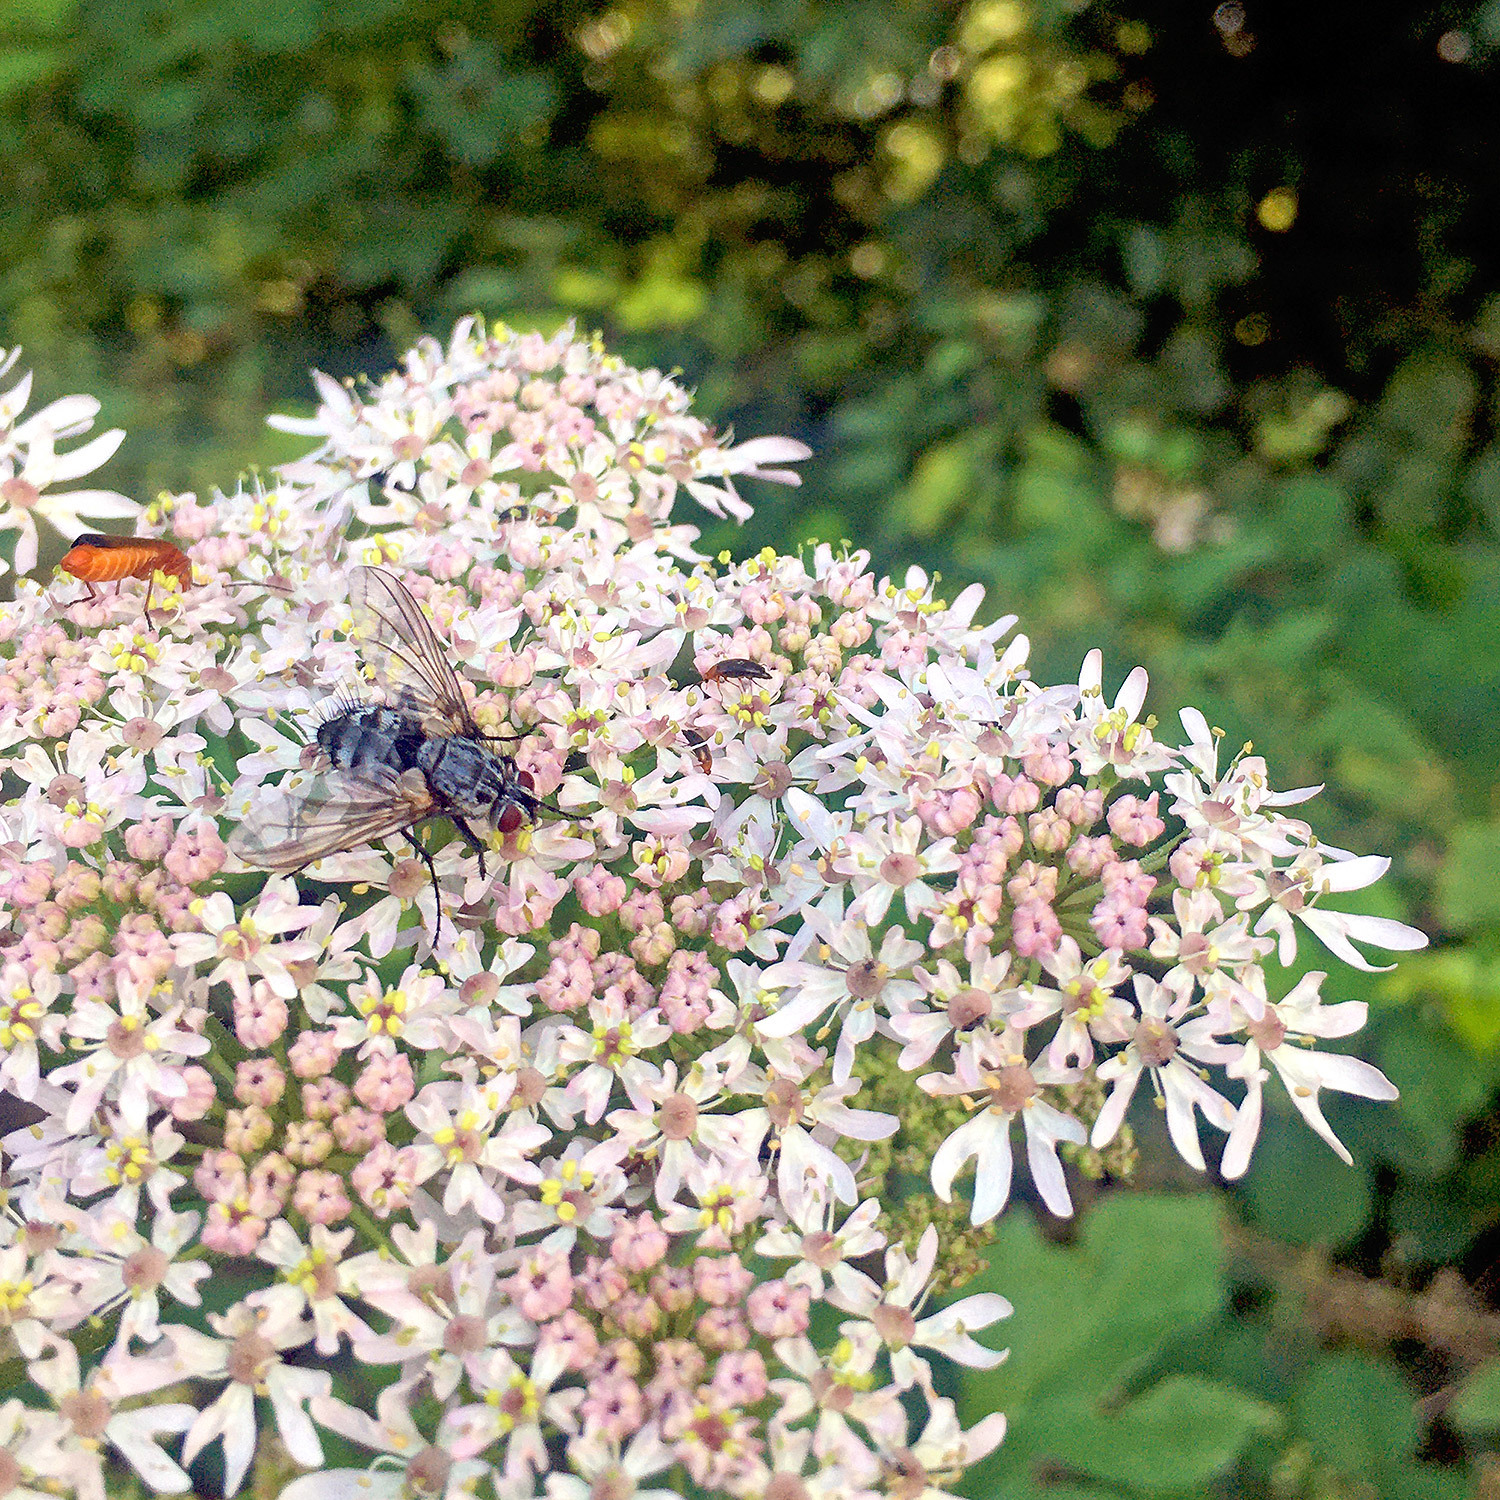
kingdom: Animalia
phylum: Arthropoda
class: Insecta
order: Diptera
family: Tachinidae
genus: Dinera
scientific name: Dinera ferina
